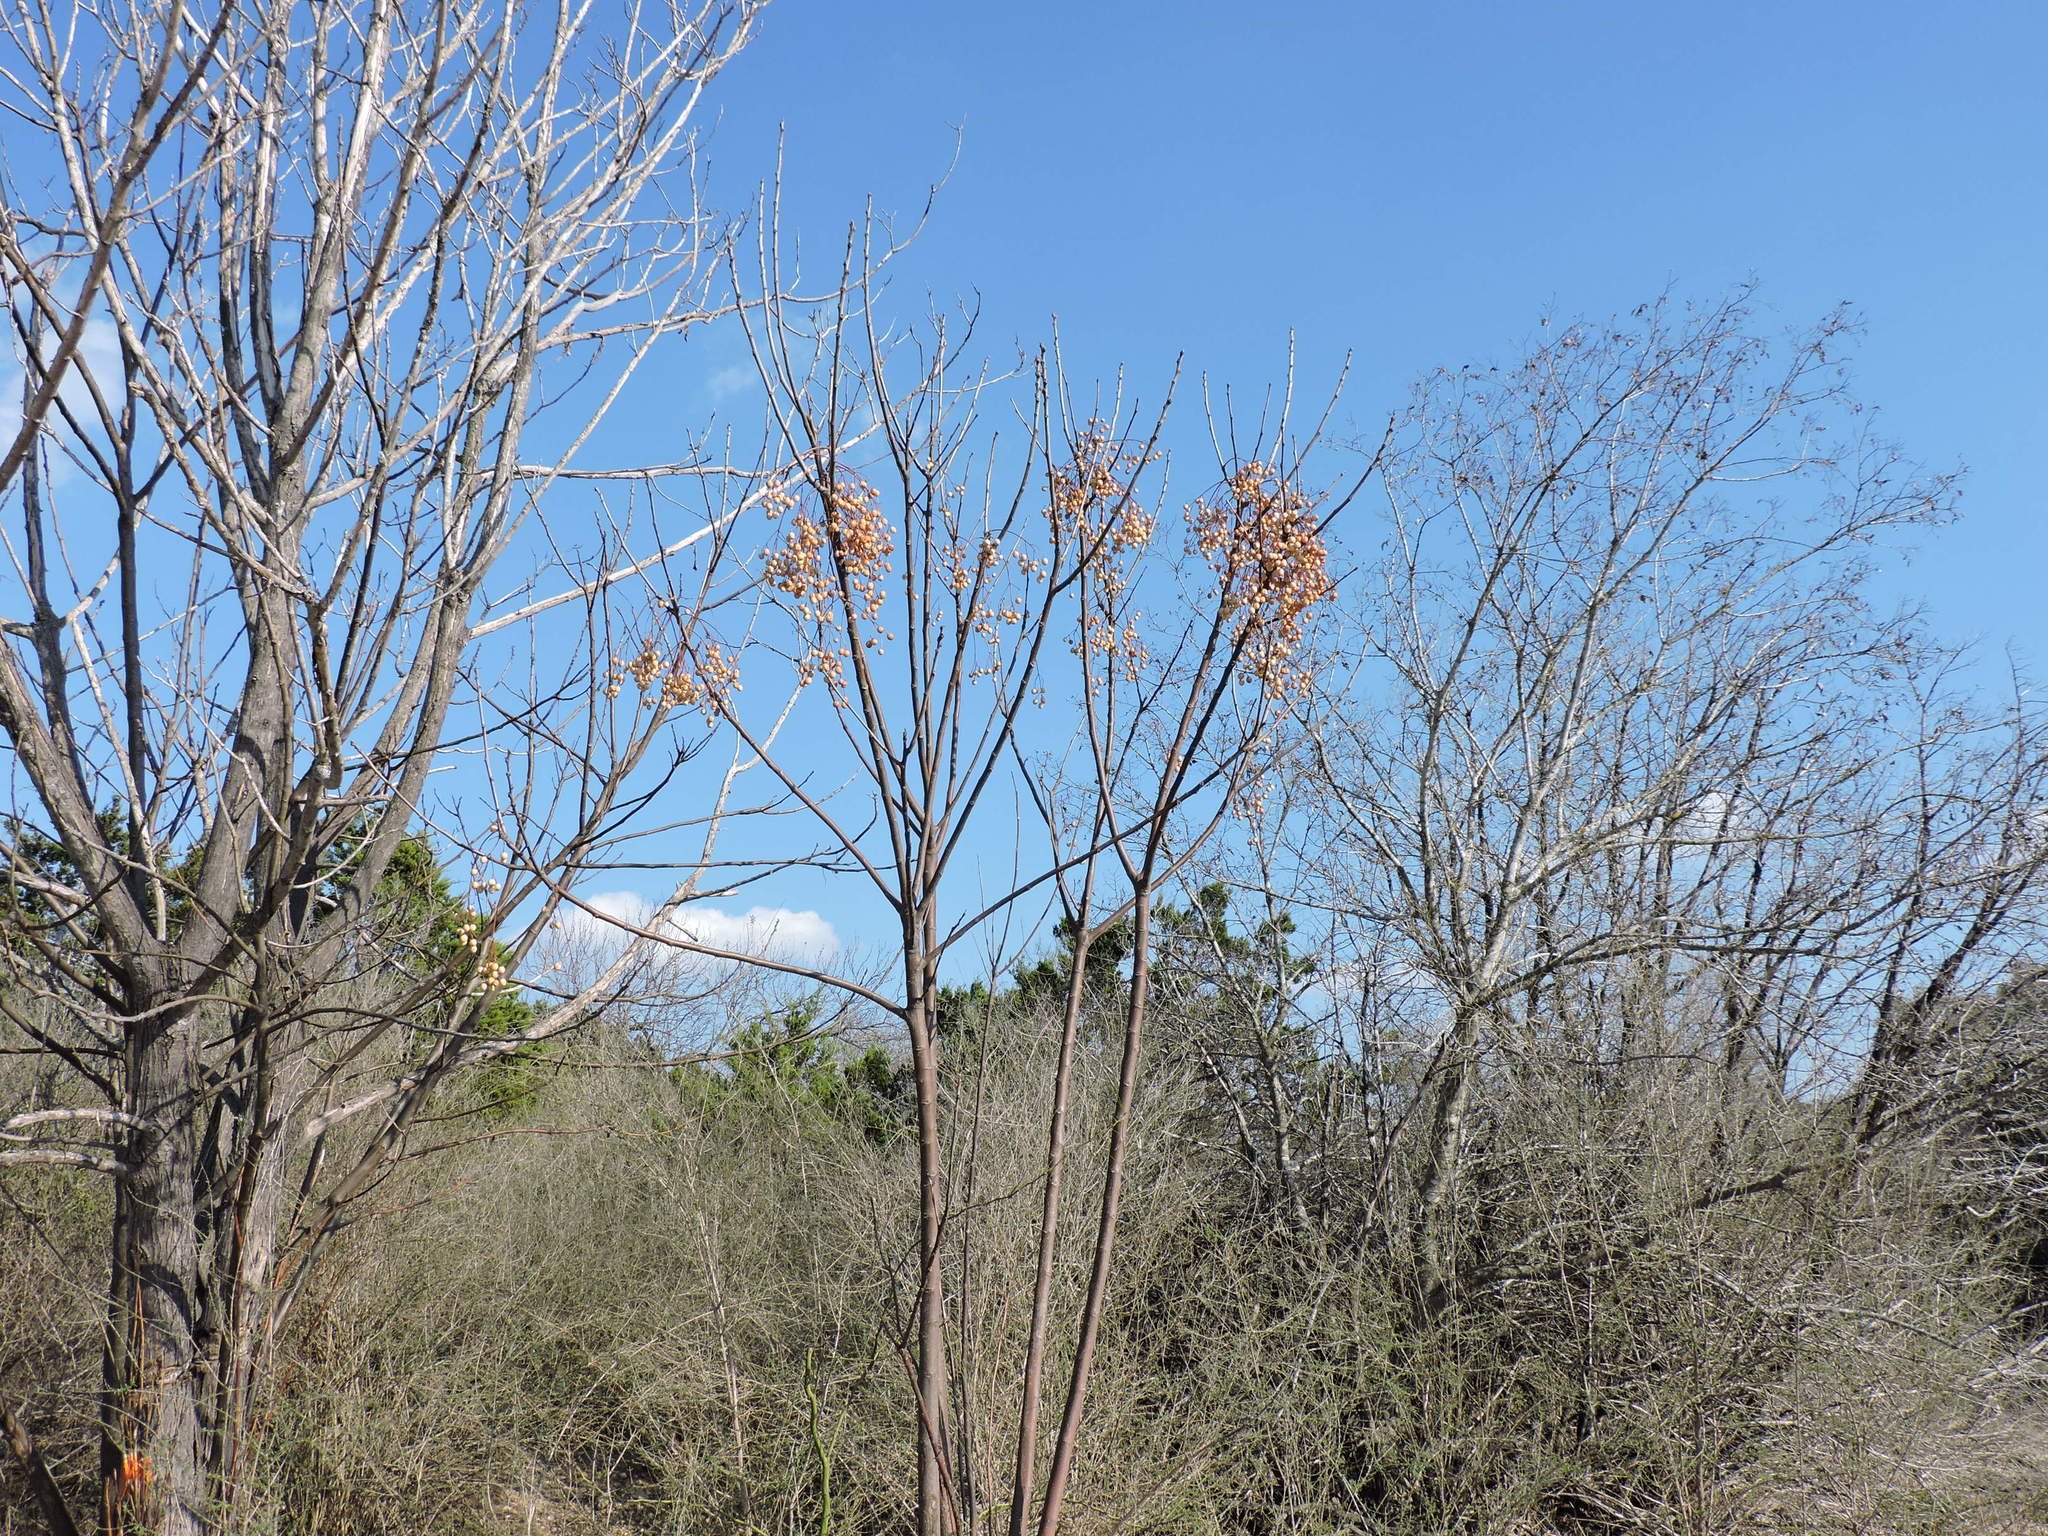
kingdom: Plantae
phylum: Tracheophyta
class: Magnoliopsida
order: Sapindales
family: Meliaceae
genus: Melia
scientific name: Melia azedarach
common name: Chinaberrytree
